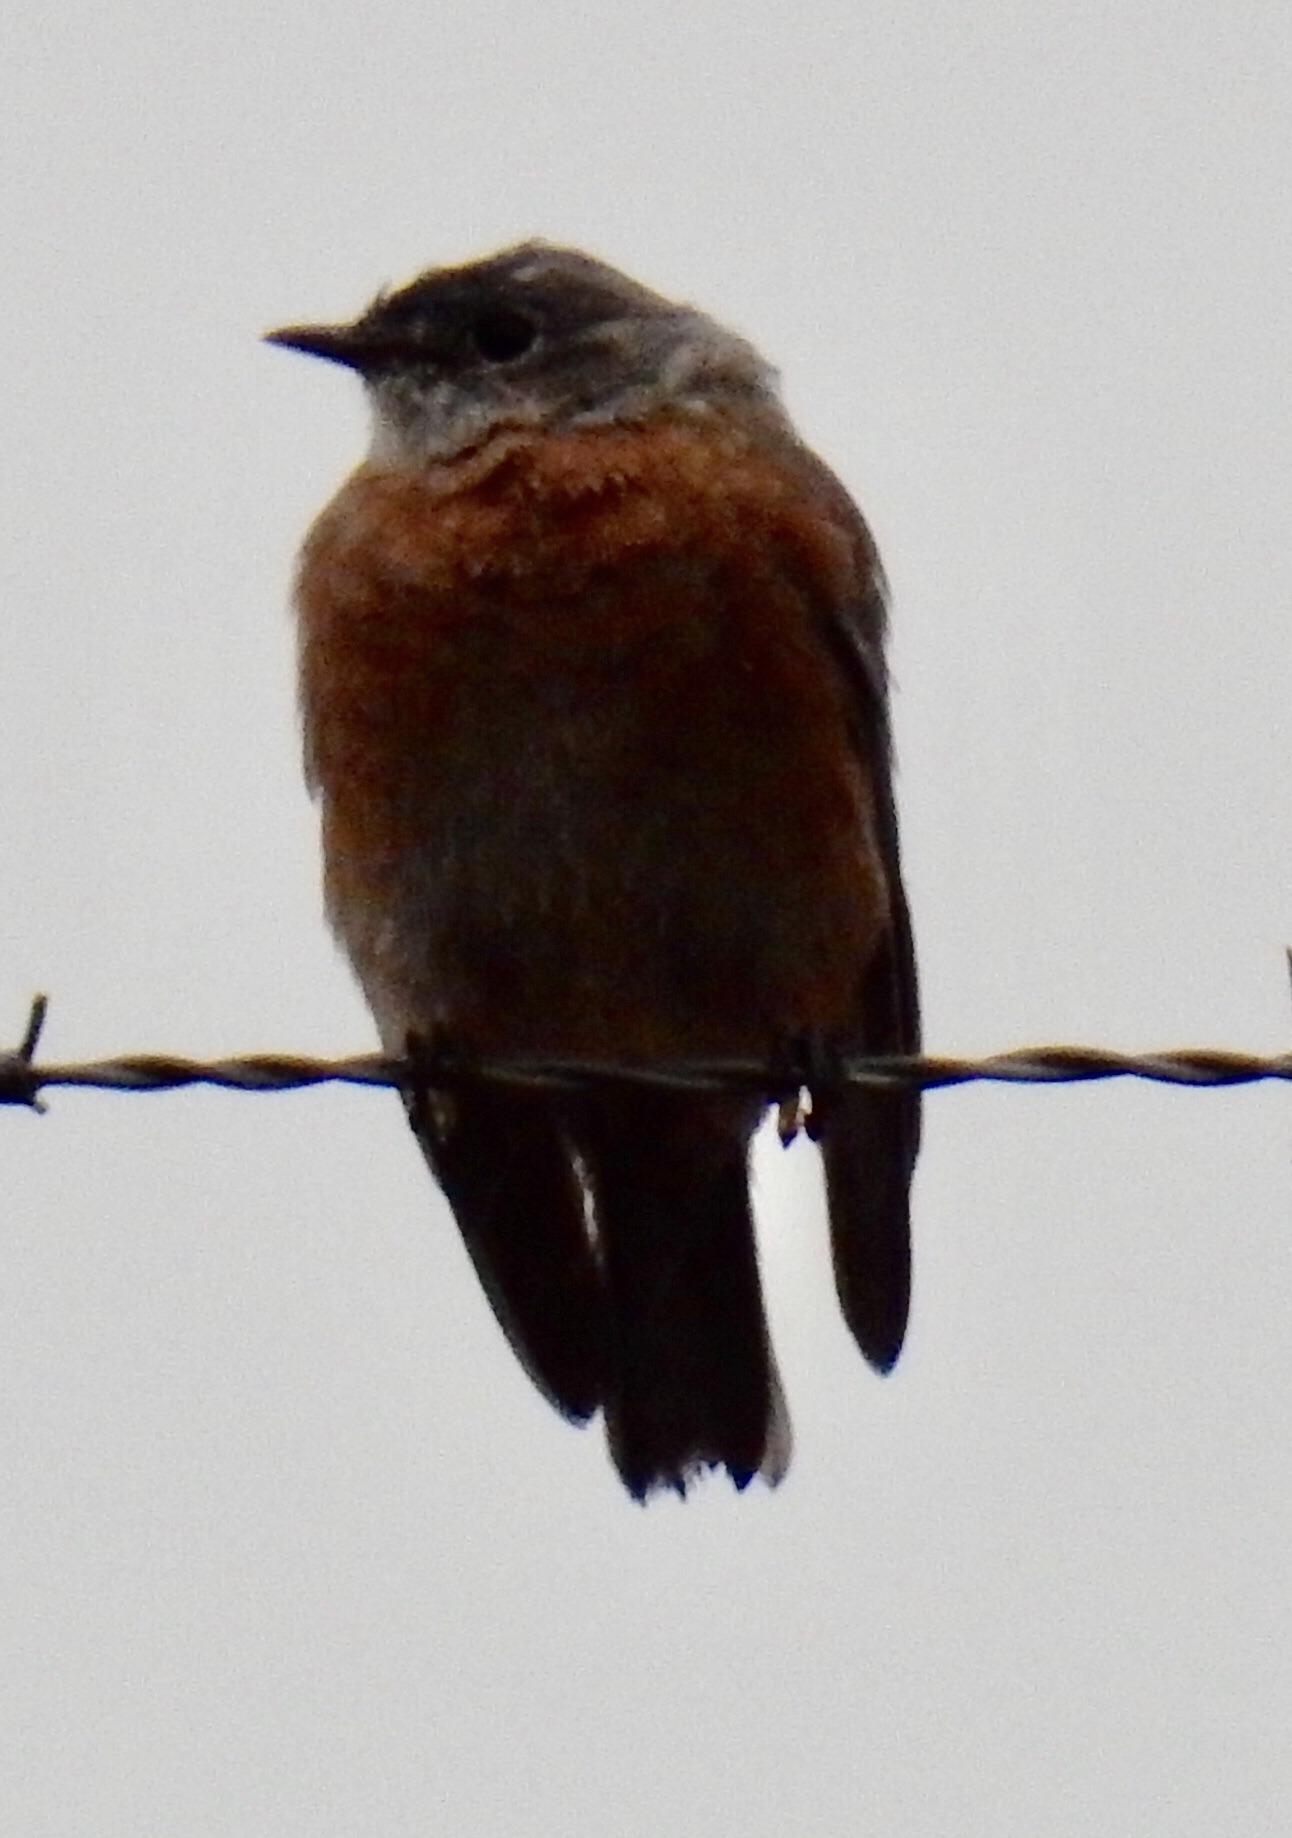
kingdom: Animalia
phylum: Chordata
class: Aves
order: Passeriformes
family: Turdidae
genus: Sialia
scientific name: Sialia mexicana
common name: Western bluebird
